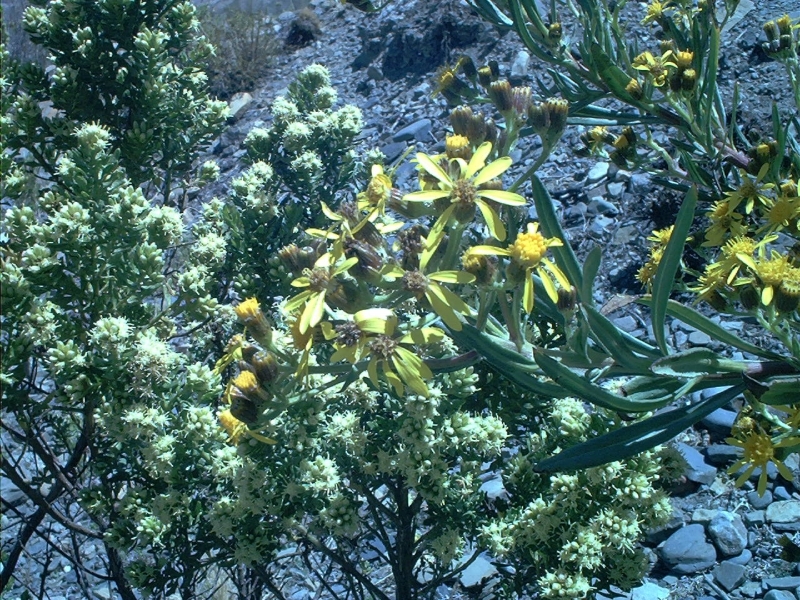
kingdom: Plantae
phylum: Tracheophyta
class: Magnoliopsida
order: Asterales
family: Asteraceae
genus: Senecio
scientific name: Senecio clivicola
